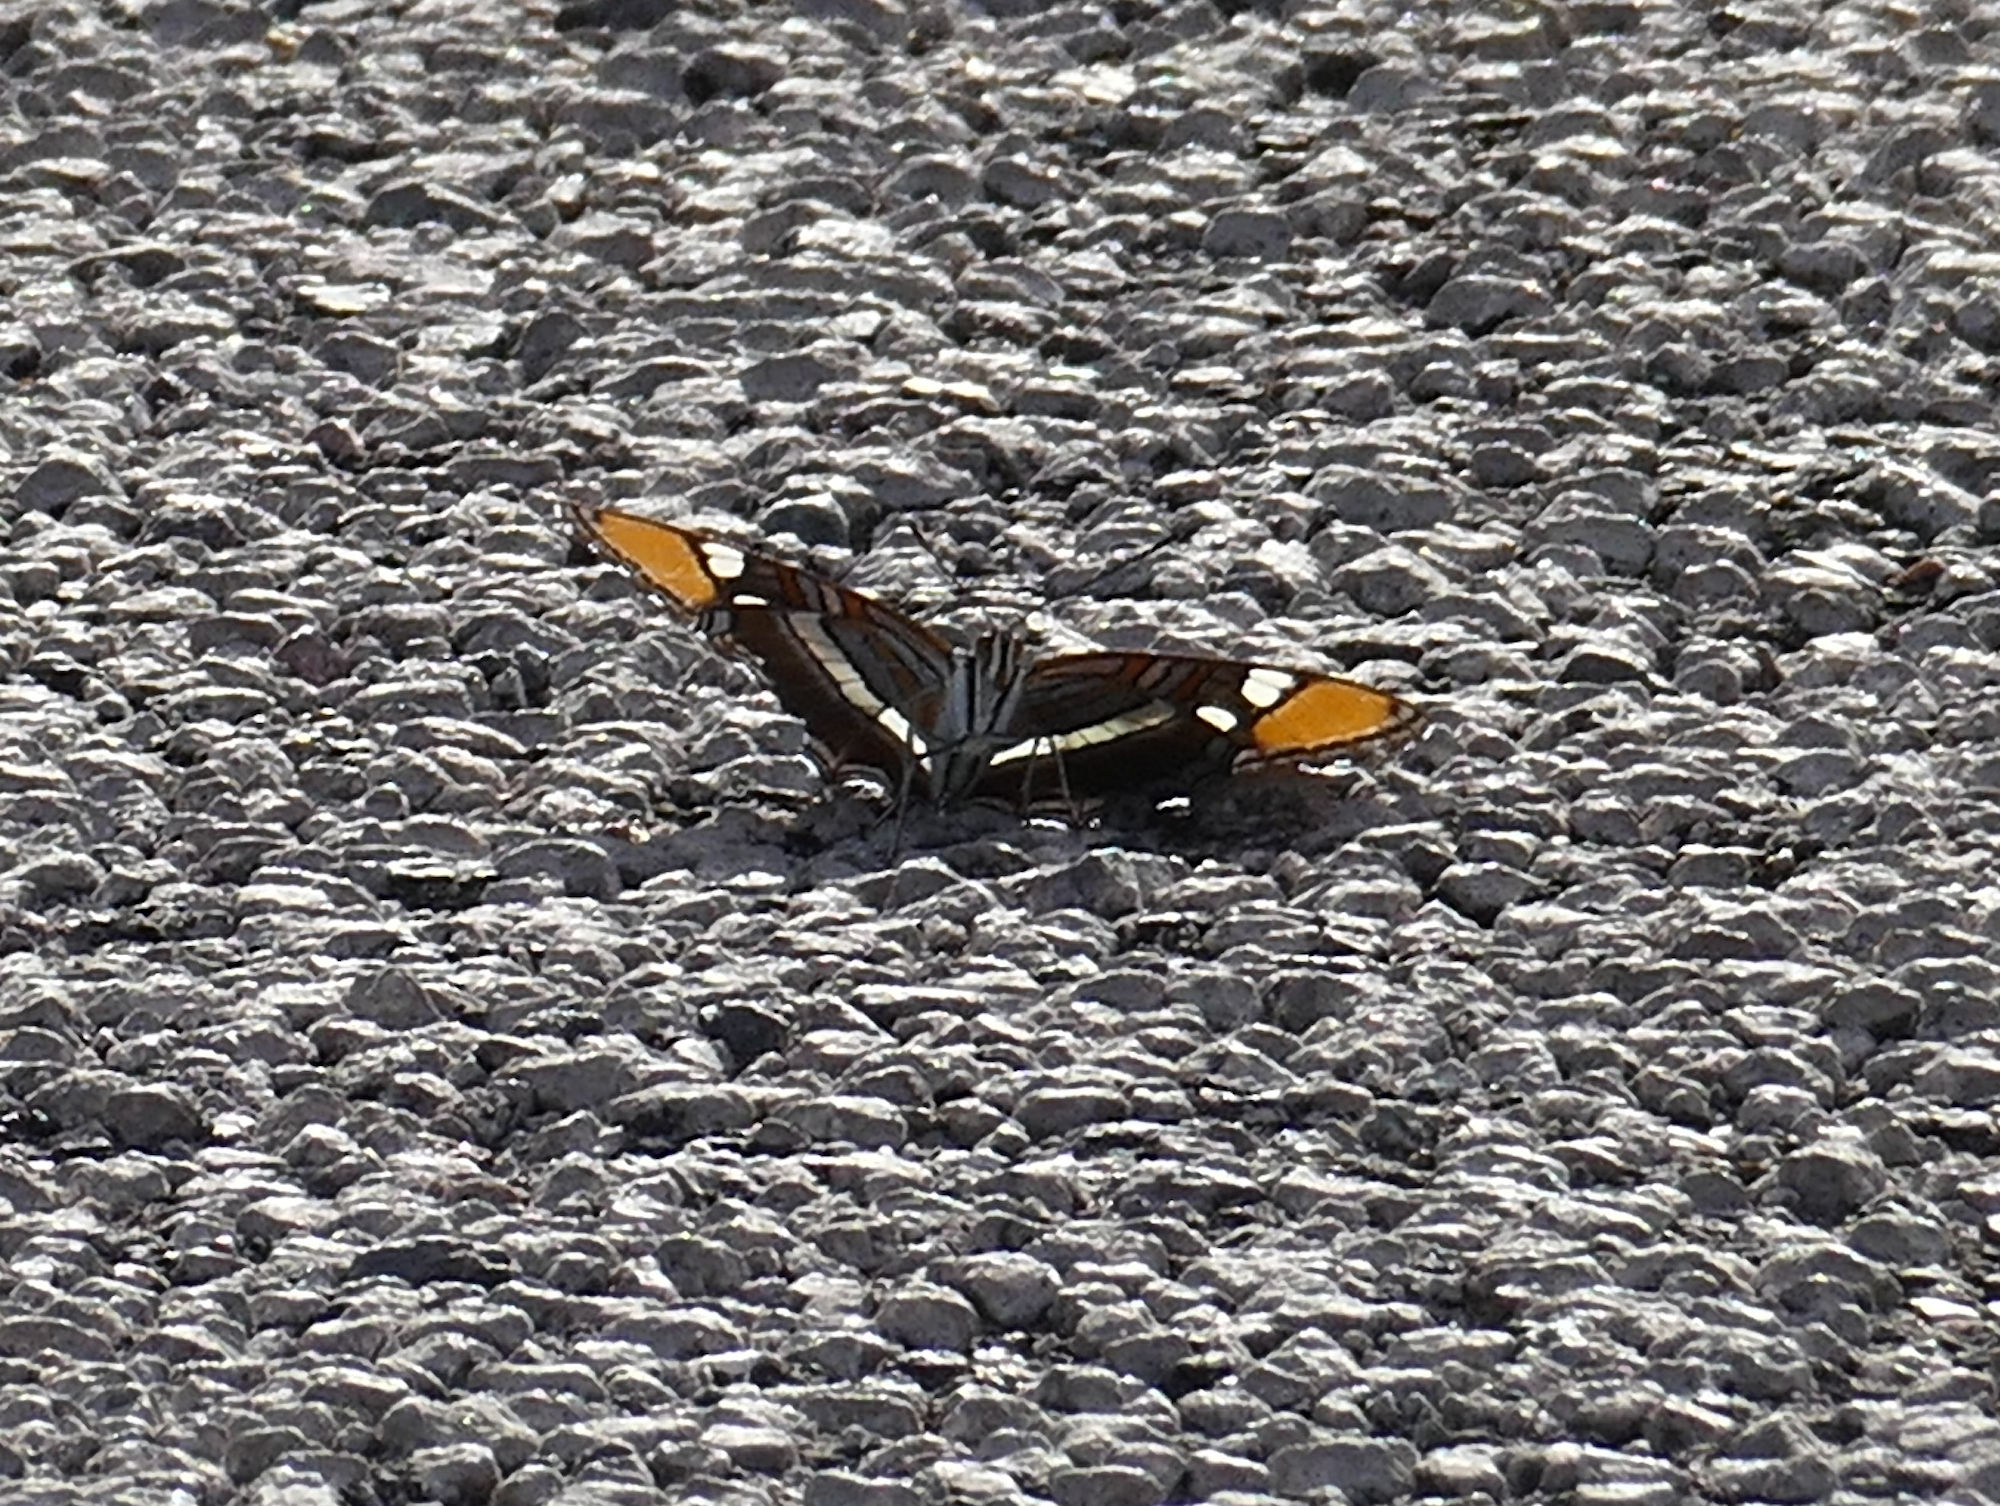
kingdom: Animalia
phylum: Arthropoda
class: Insecta
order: Lepidoptera
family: Nymphalidae
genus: Limenitis
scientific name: Limenitis bredowii
